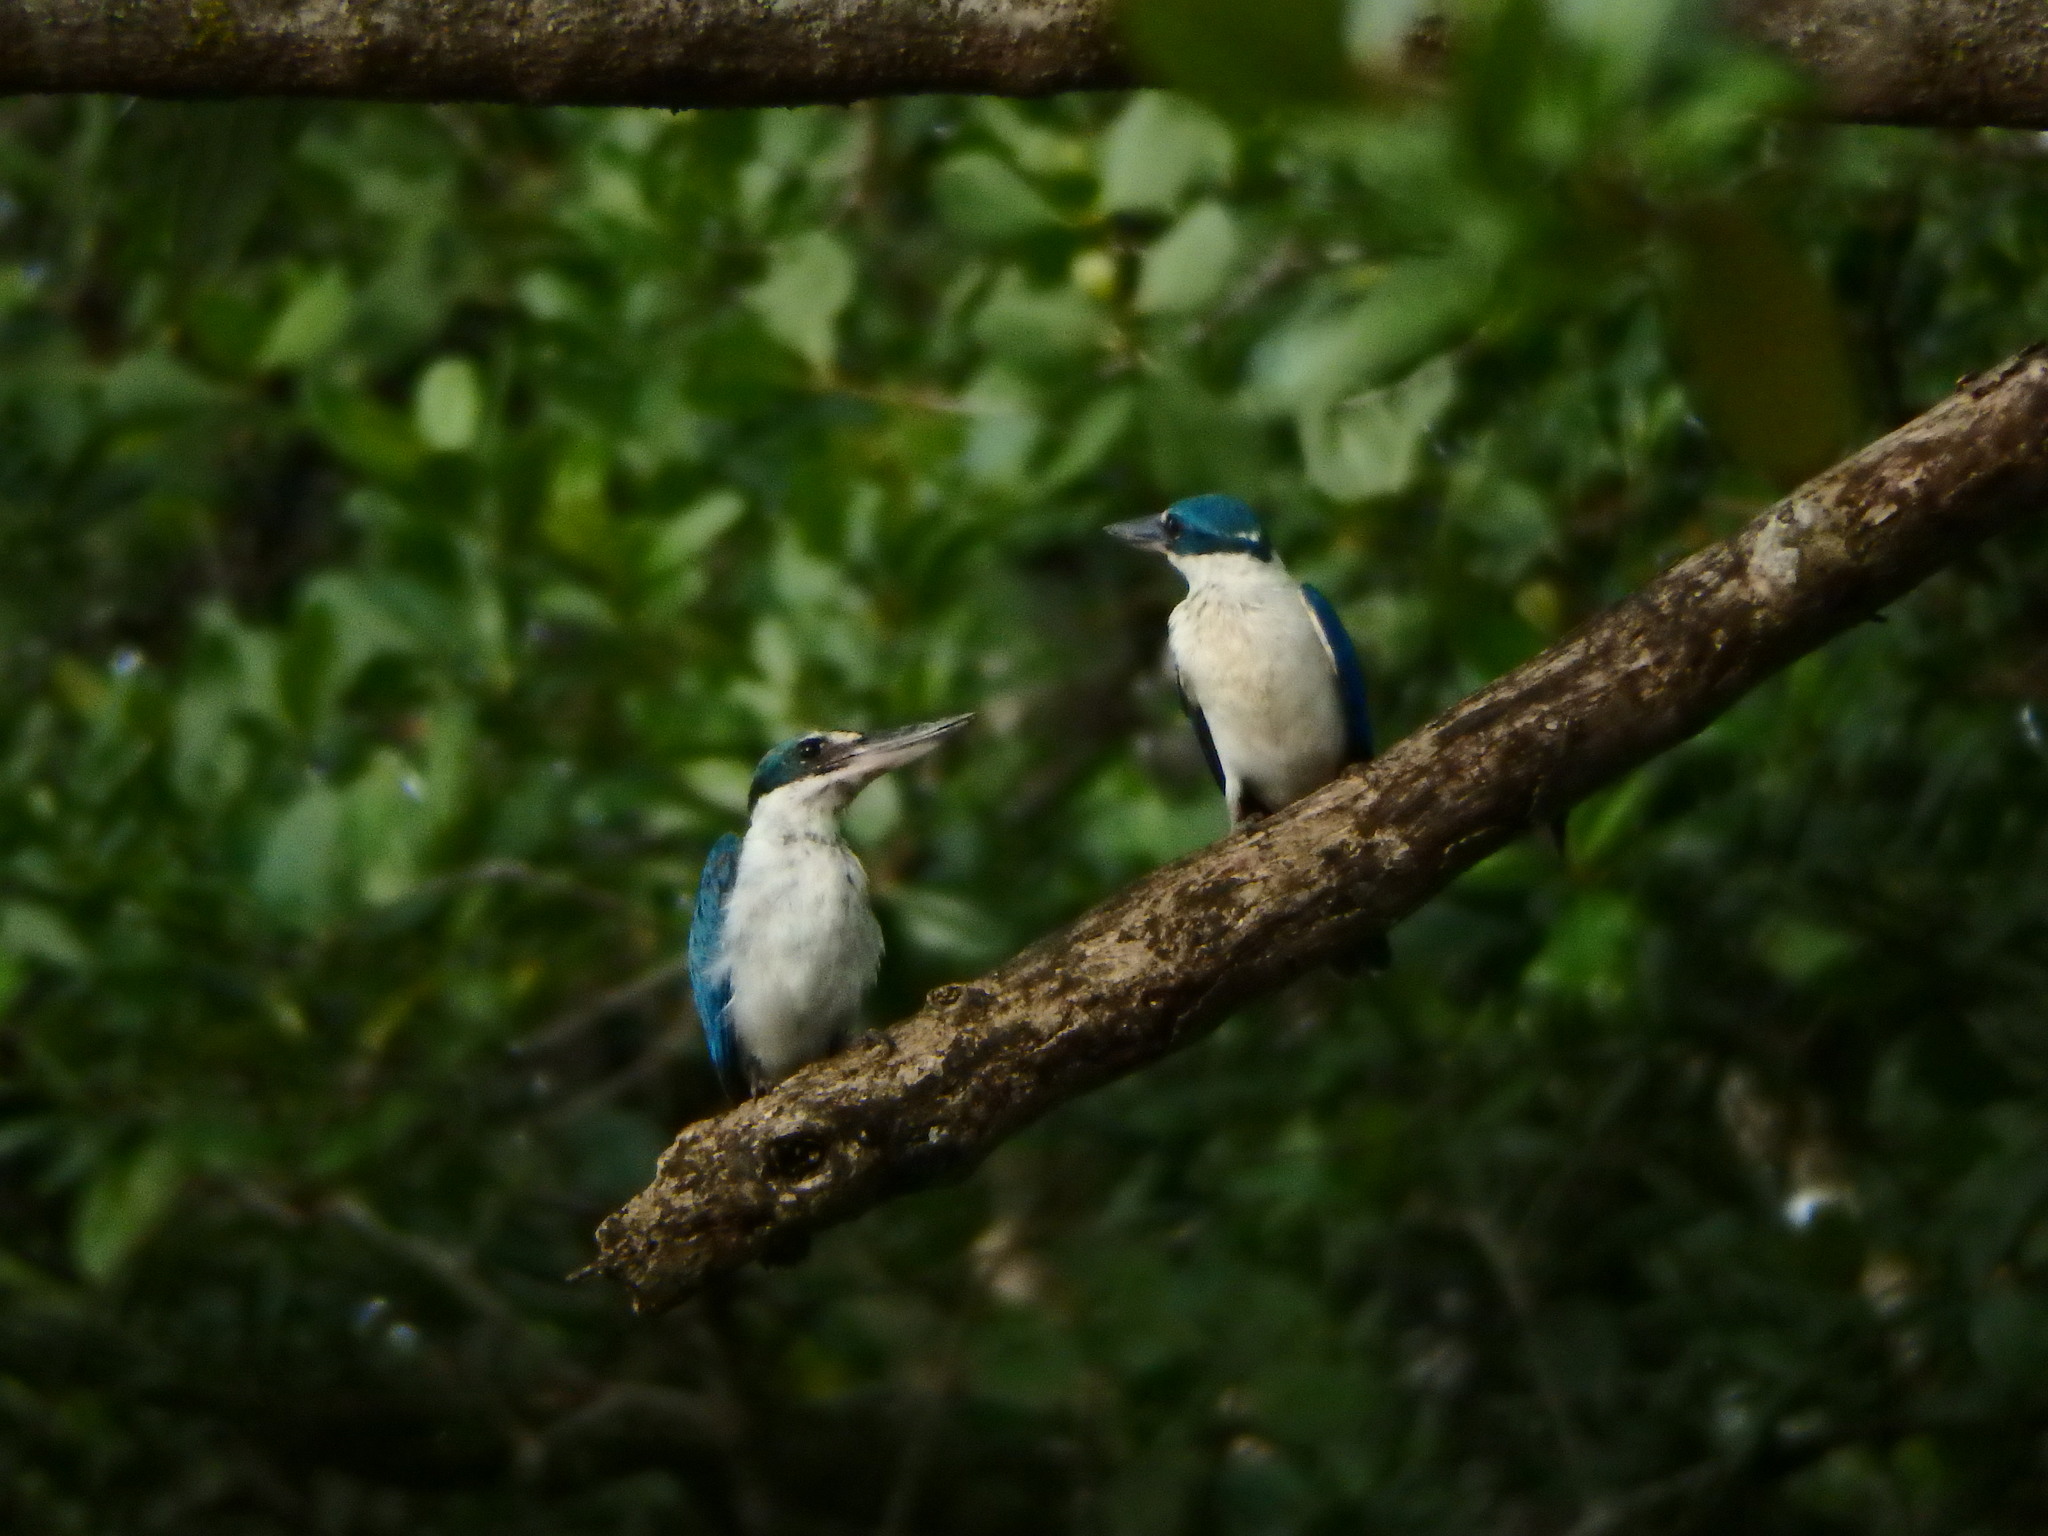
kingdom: Animalia
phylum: Chordata
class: Aves
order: Coraciiformes
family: Alcedinidae
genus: Todiramphus
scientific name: Todiramphus chloris
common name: Collared kingfisher
